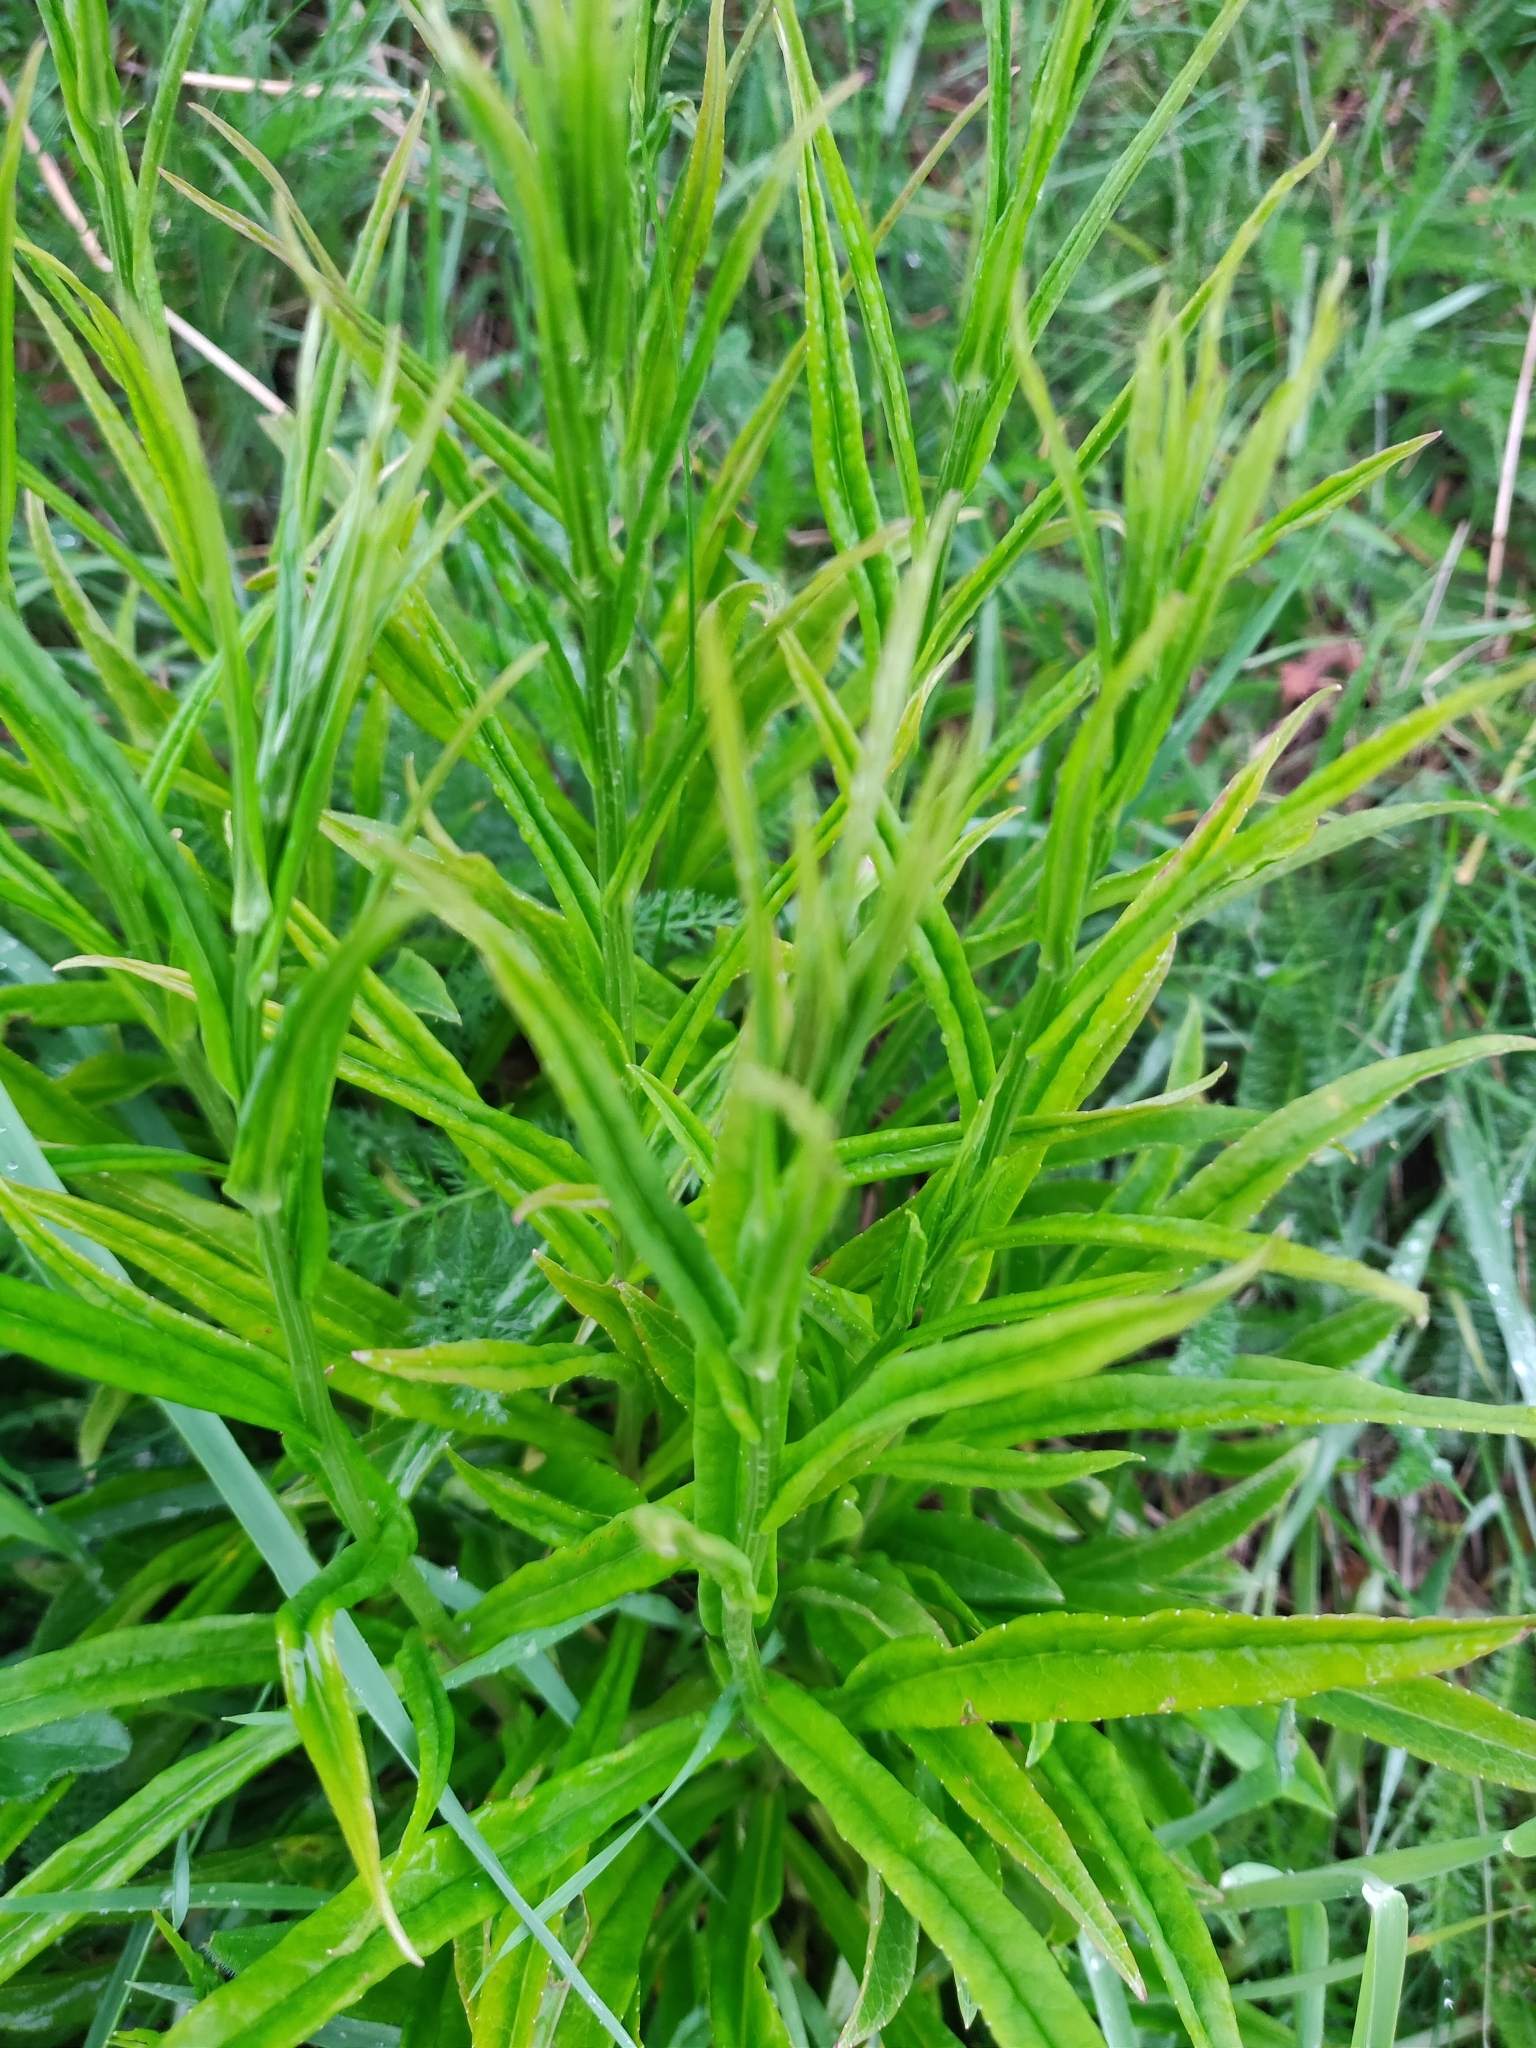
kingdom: Plantae
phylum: Tracheophyta
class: Magnoliopsida
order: Asterales
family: Campanulaceae
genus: Campanula
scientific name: Campanula persicifolia
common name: Peach-leaved bellflower
